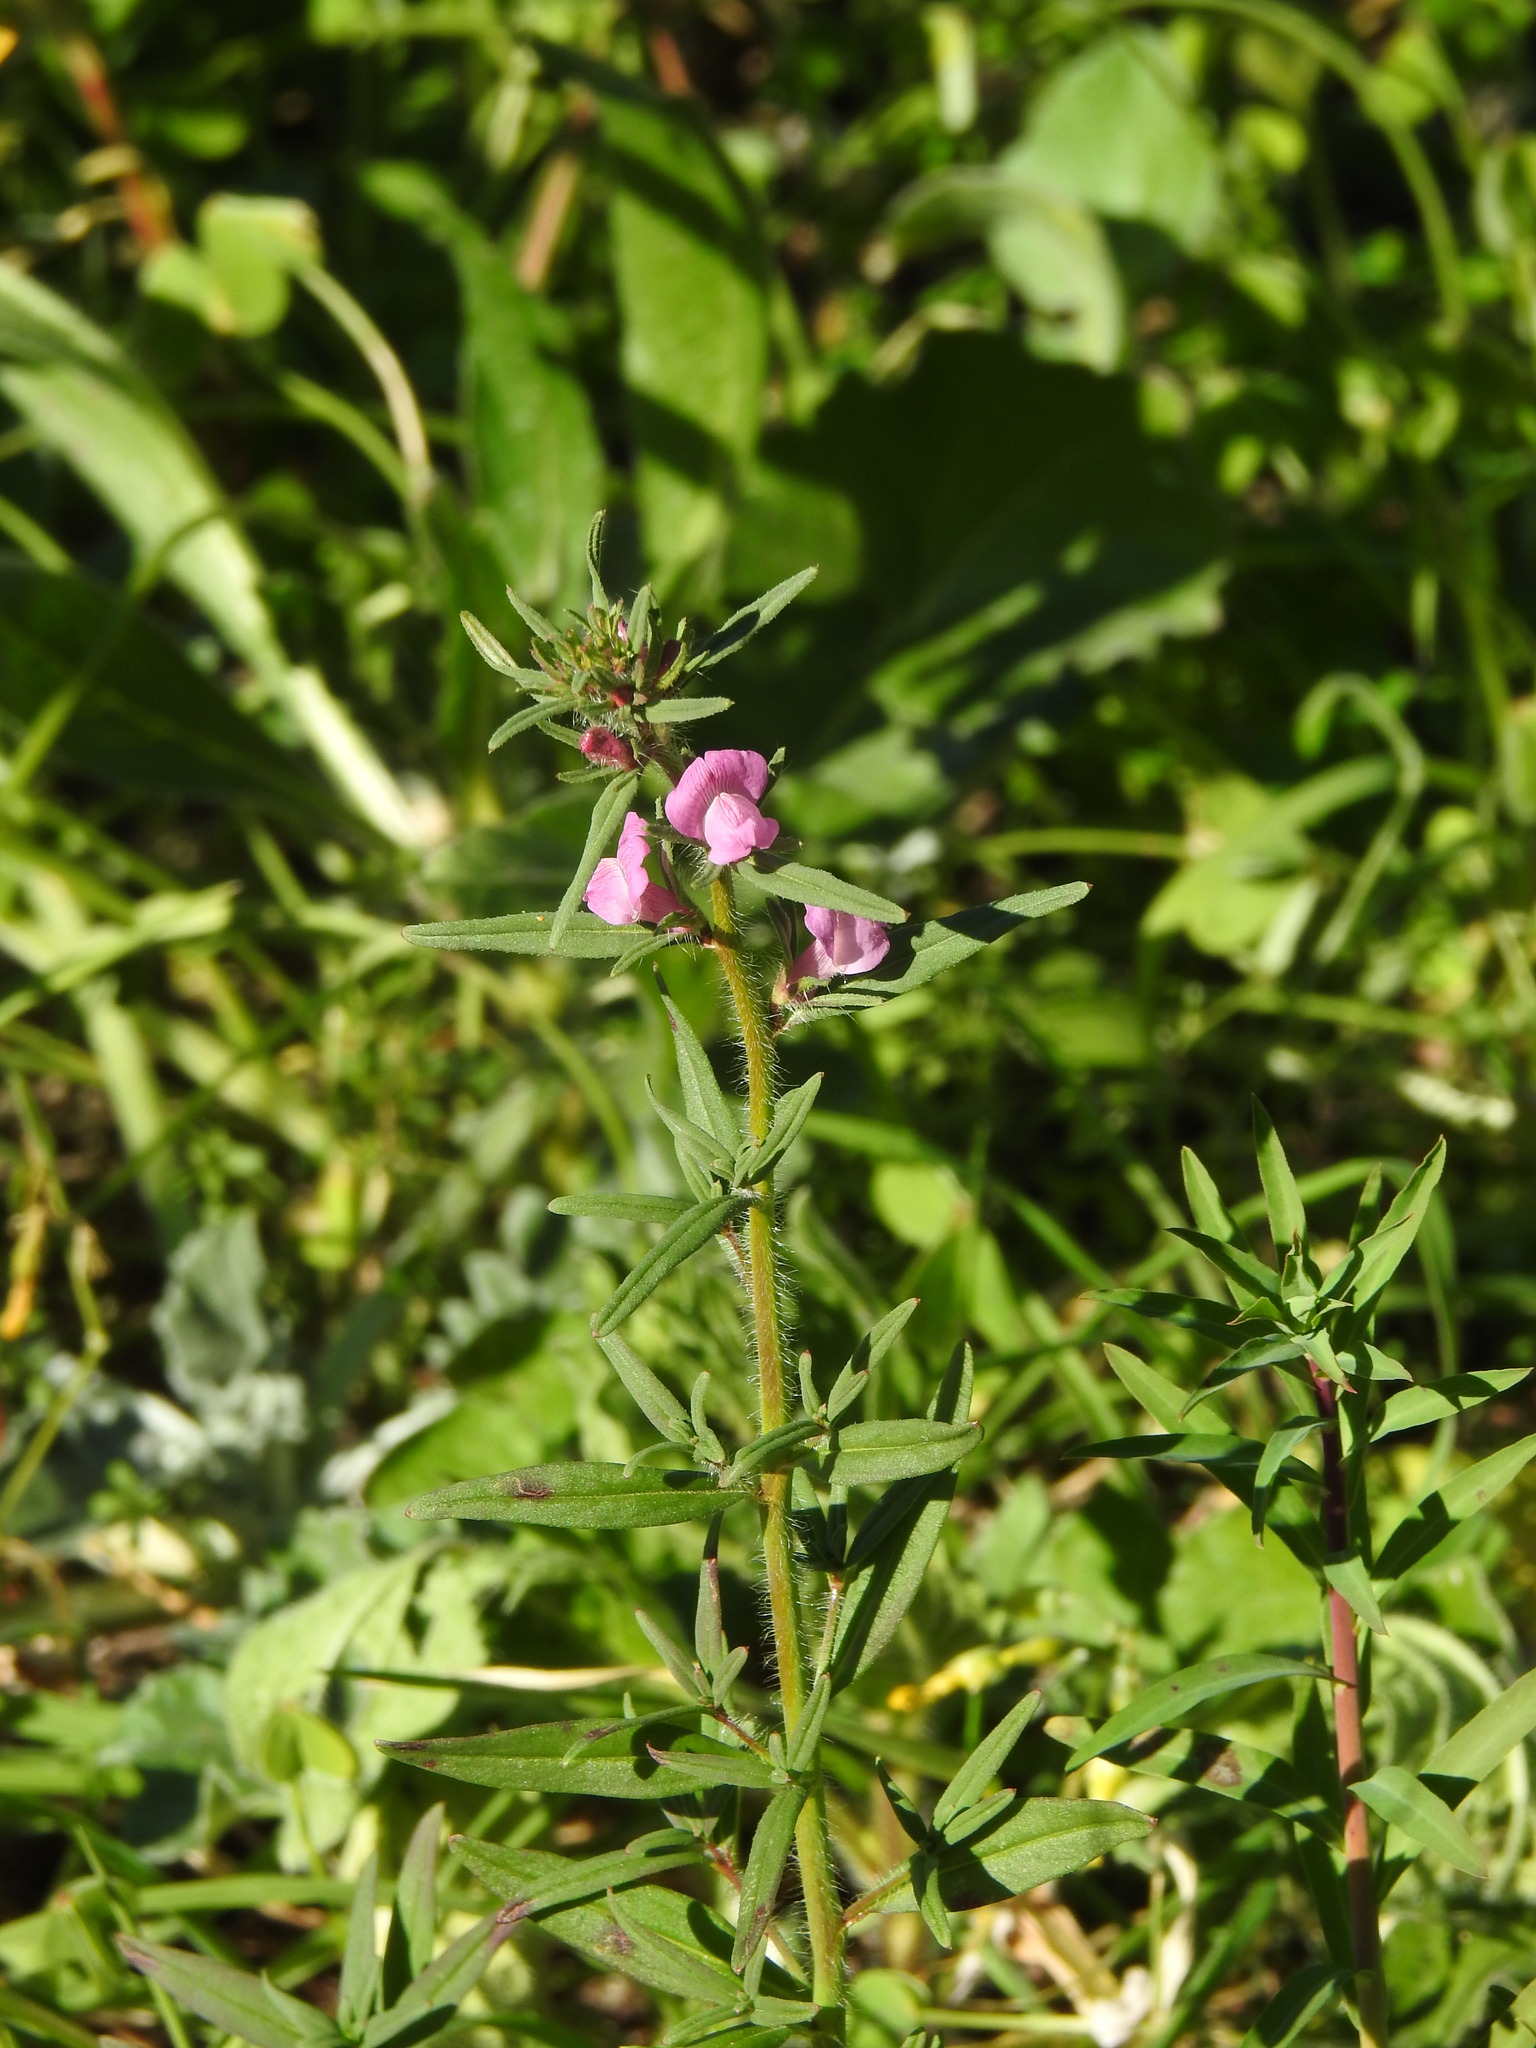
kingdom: Plantae
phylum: Tracheophyta
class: Magnoliopsida
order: Lamiales
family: Plantaginaceae
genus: Misopates
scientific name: Misopates orontium
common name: Weasel's-snout
